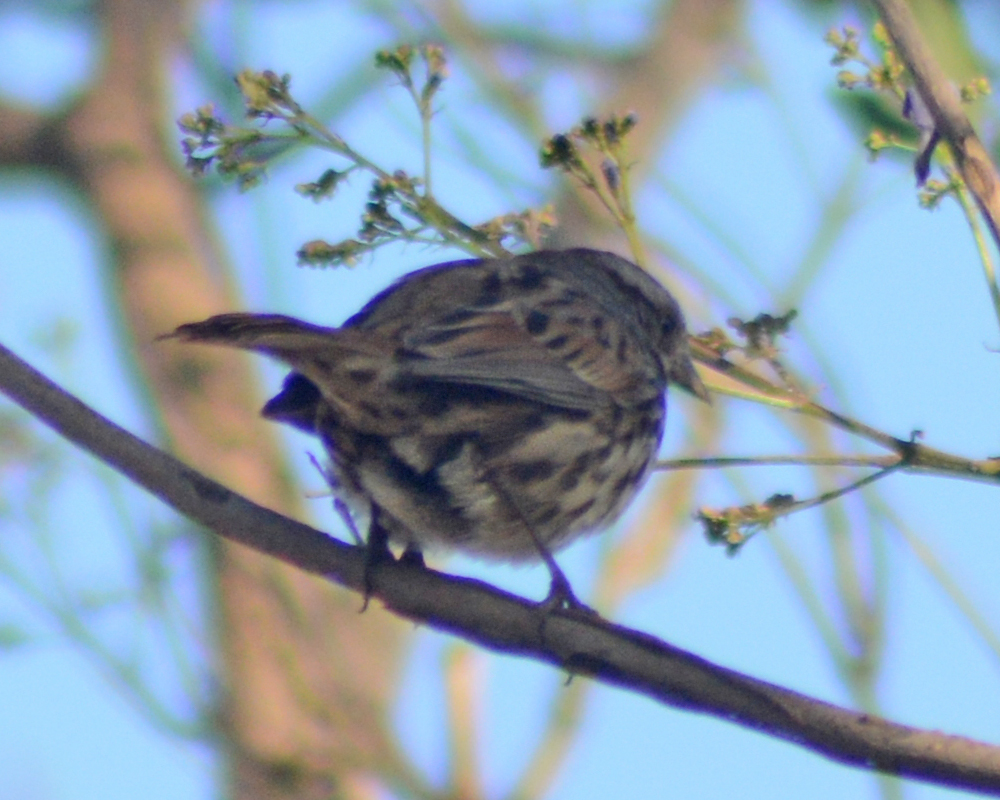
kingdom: Animalia
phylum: Chordata
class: Aves
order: Passeriformes
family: Passerellidae
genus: Melospiza
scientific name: Melospiza melodia
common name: Song sparrow
